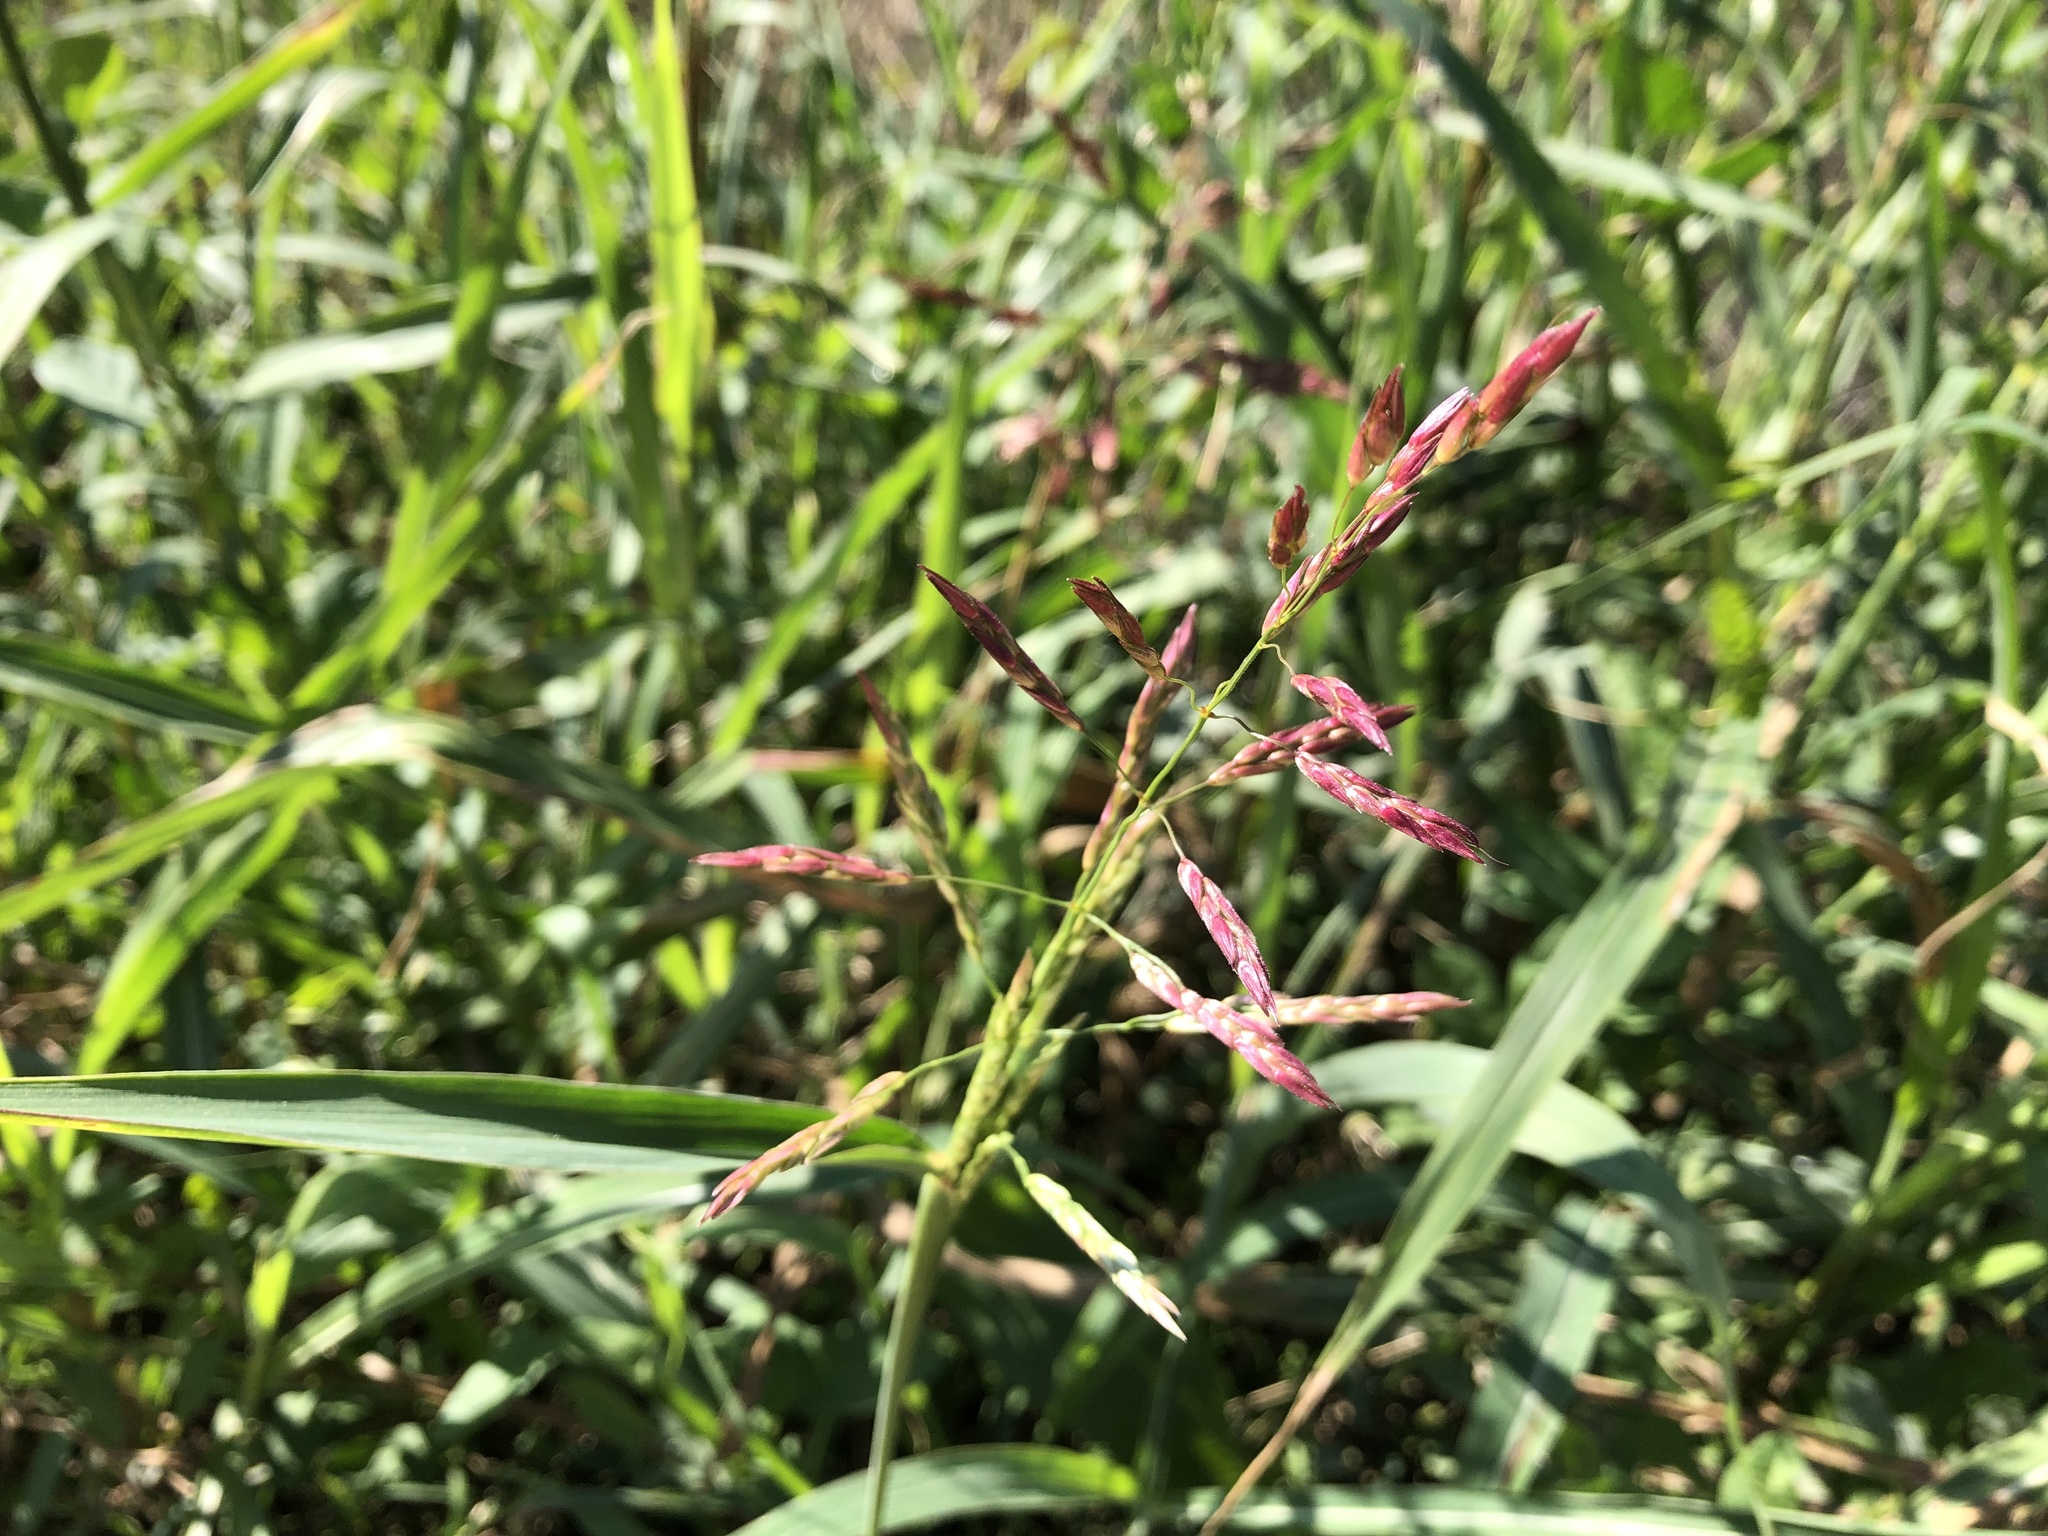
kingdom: Plantae
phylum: Tracheophyta
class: Liliopsida
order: Poales
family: Poaceae
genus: Sorghum
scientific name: Sorghum halepense
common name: Johnson-grass
